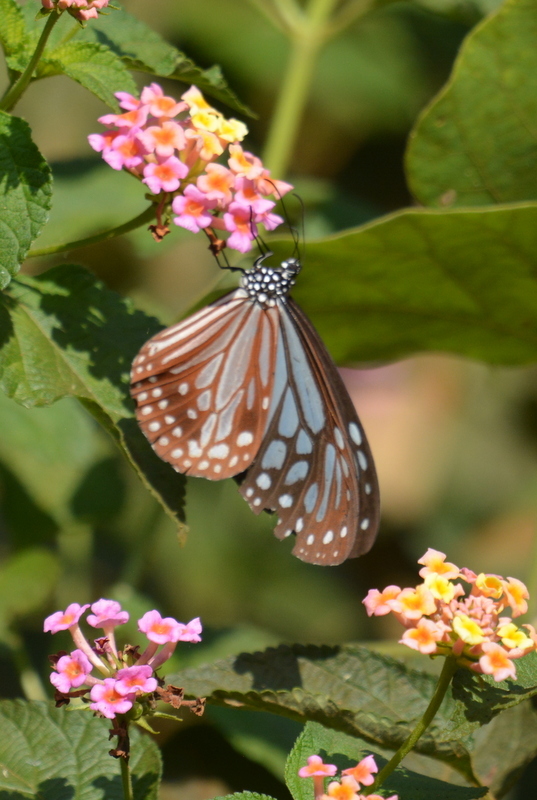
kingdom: Animalia
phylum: Arthropoda
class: Insecta
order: Lepidoptera
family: Nymphalidae
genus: Parantica
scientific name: Parantica melaneus
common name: Chocolate tiger
